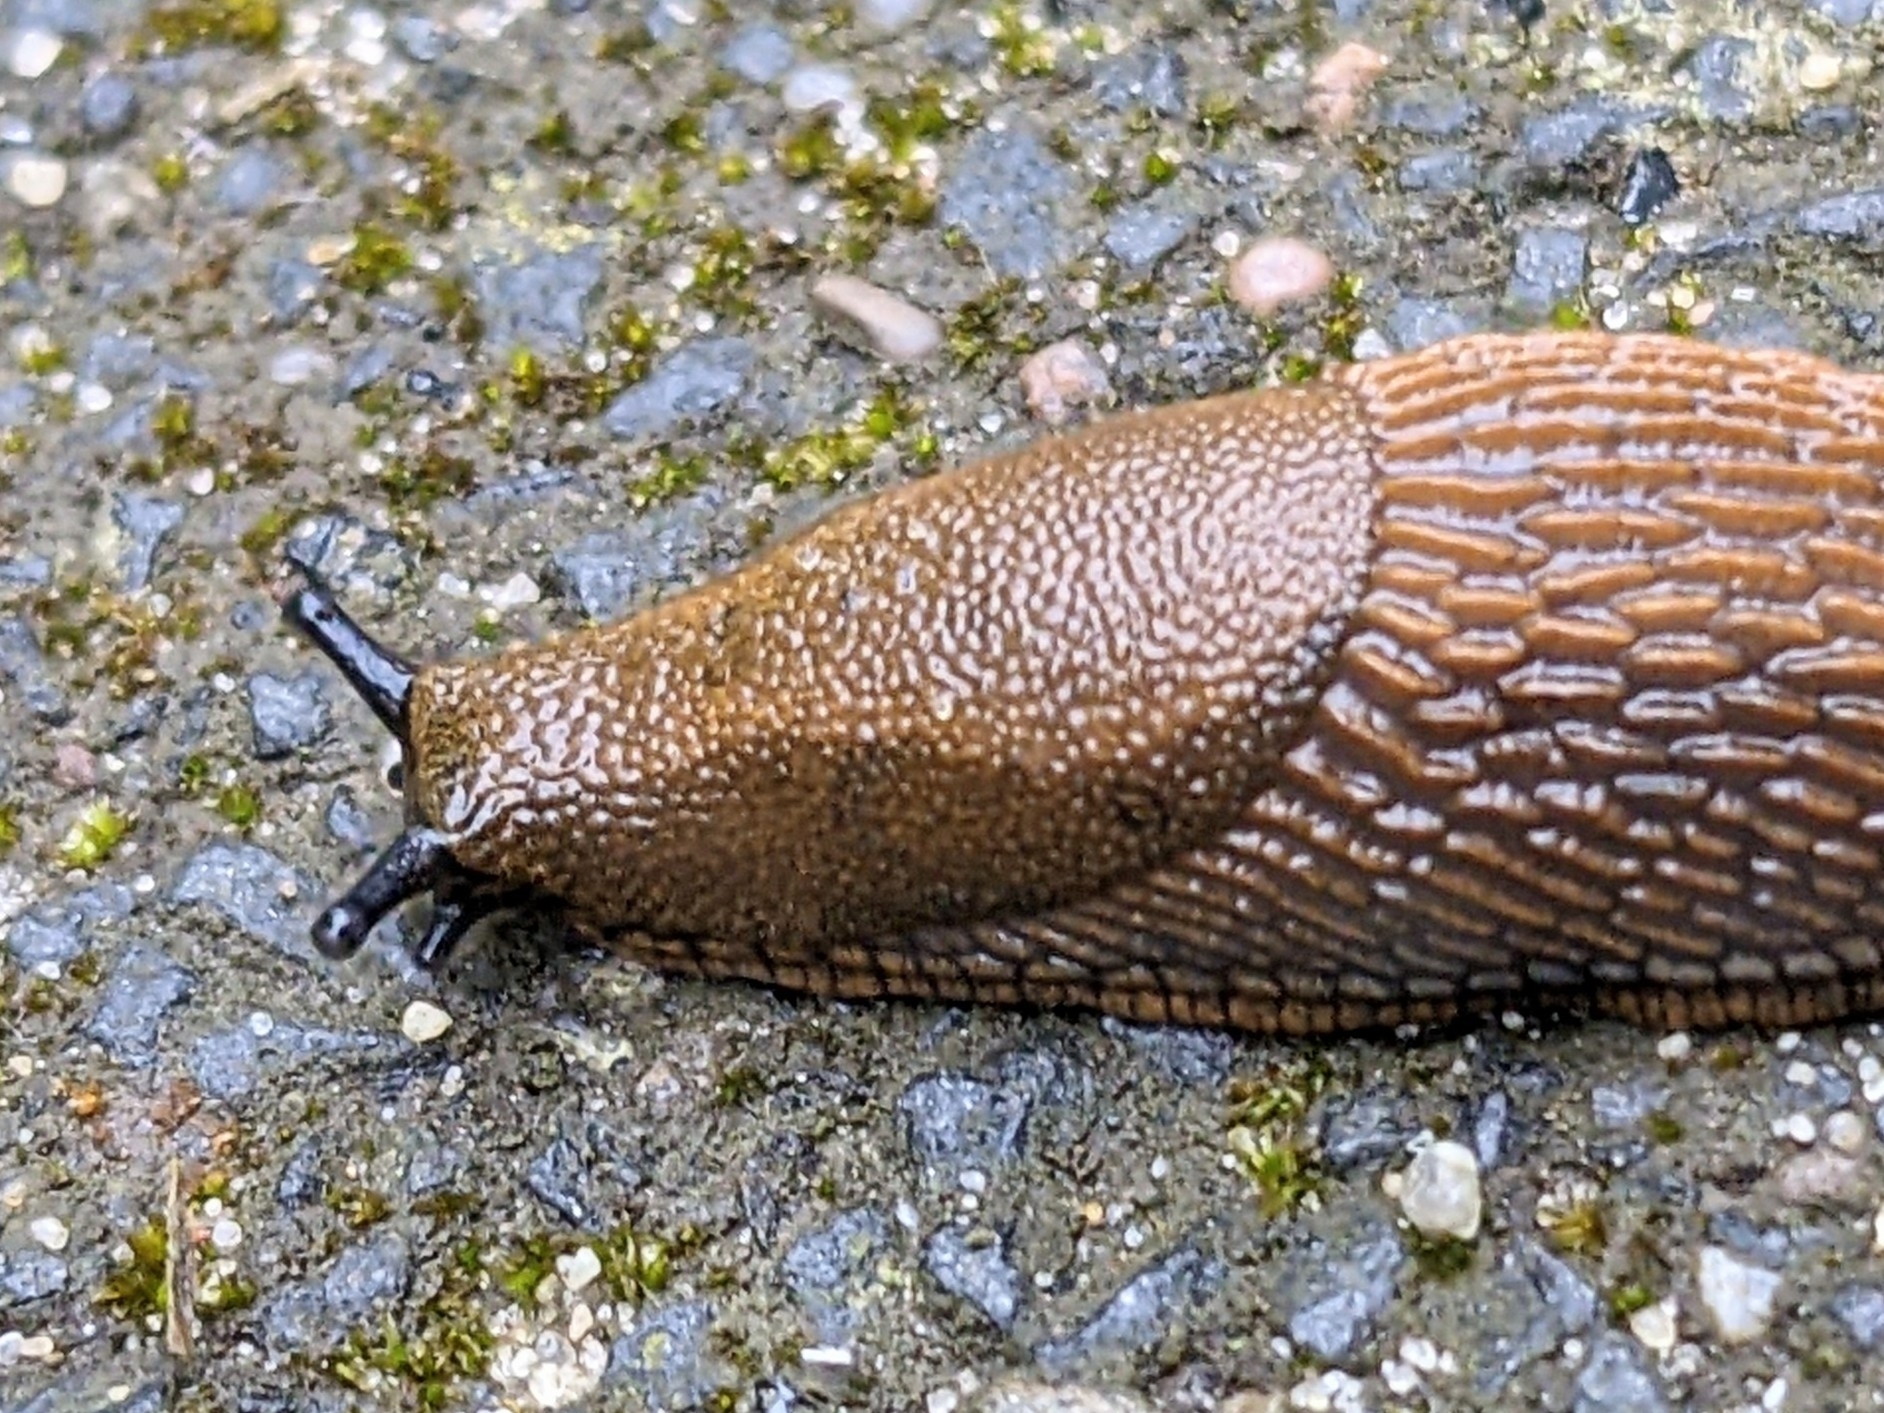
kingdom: Animalia
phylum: Mollusca
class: Gastropoda
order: Stylommatophora
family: Arionidae
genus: Arion
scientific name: Arion vulgaris
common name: Lusitanian slug
